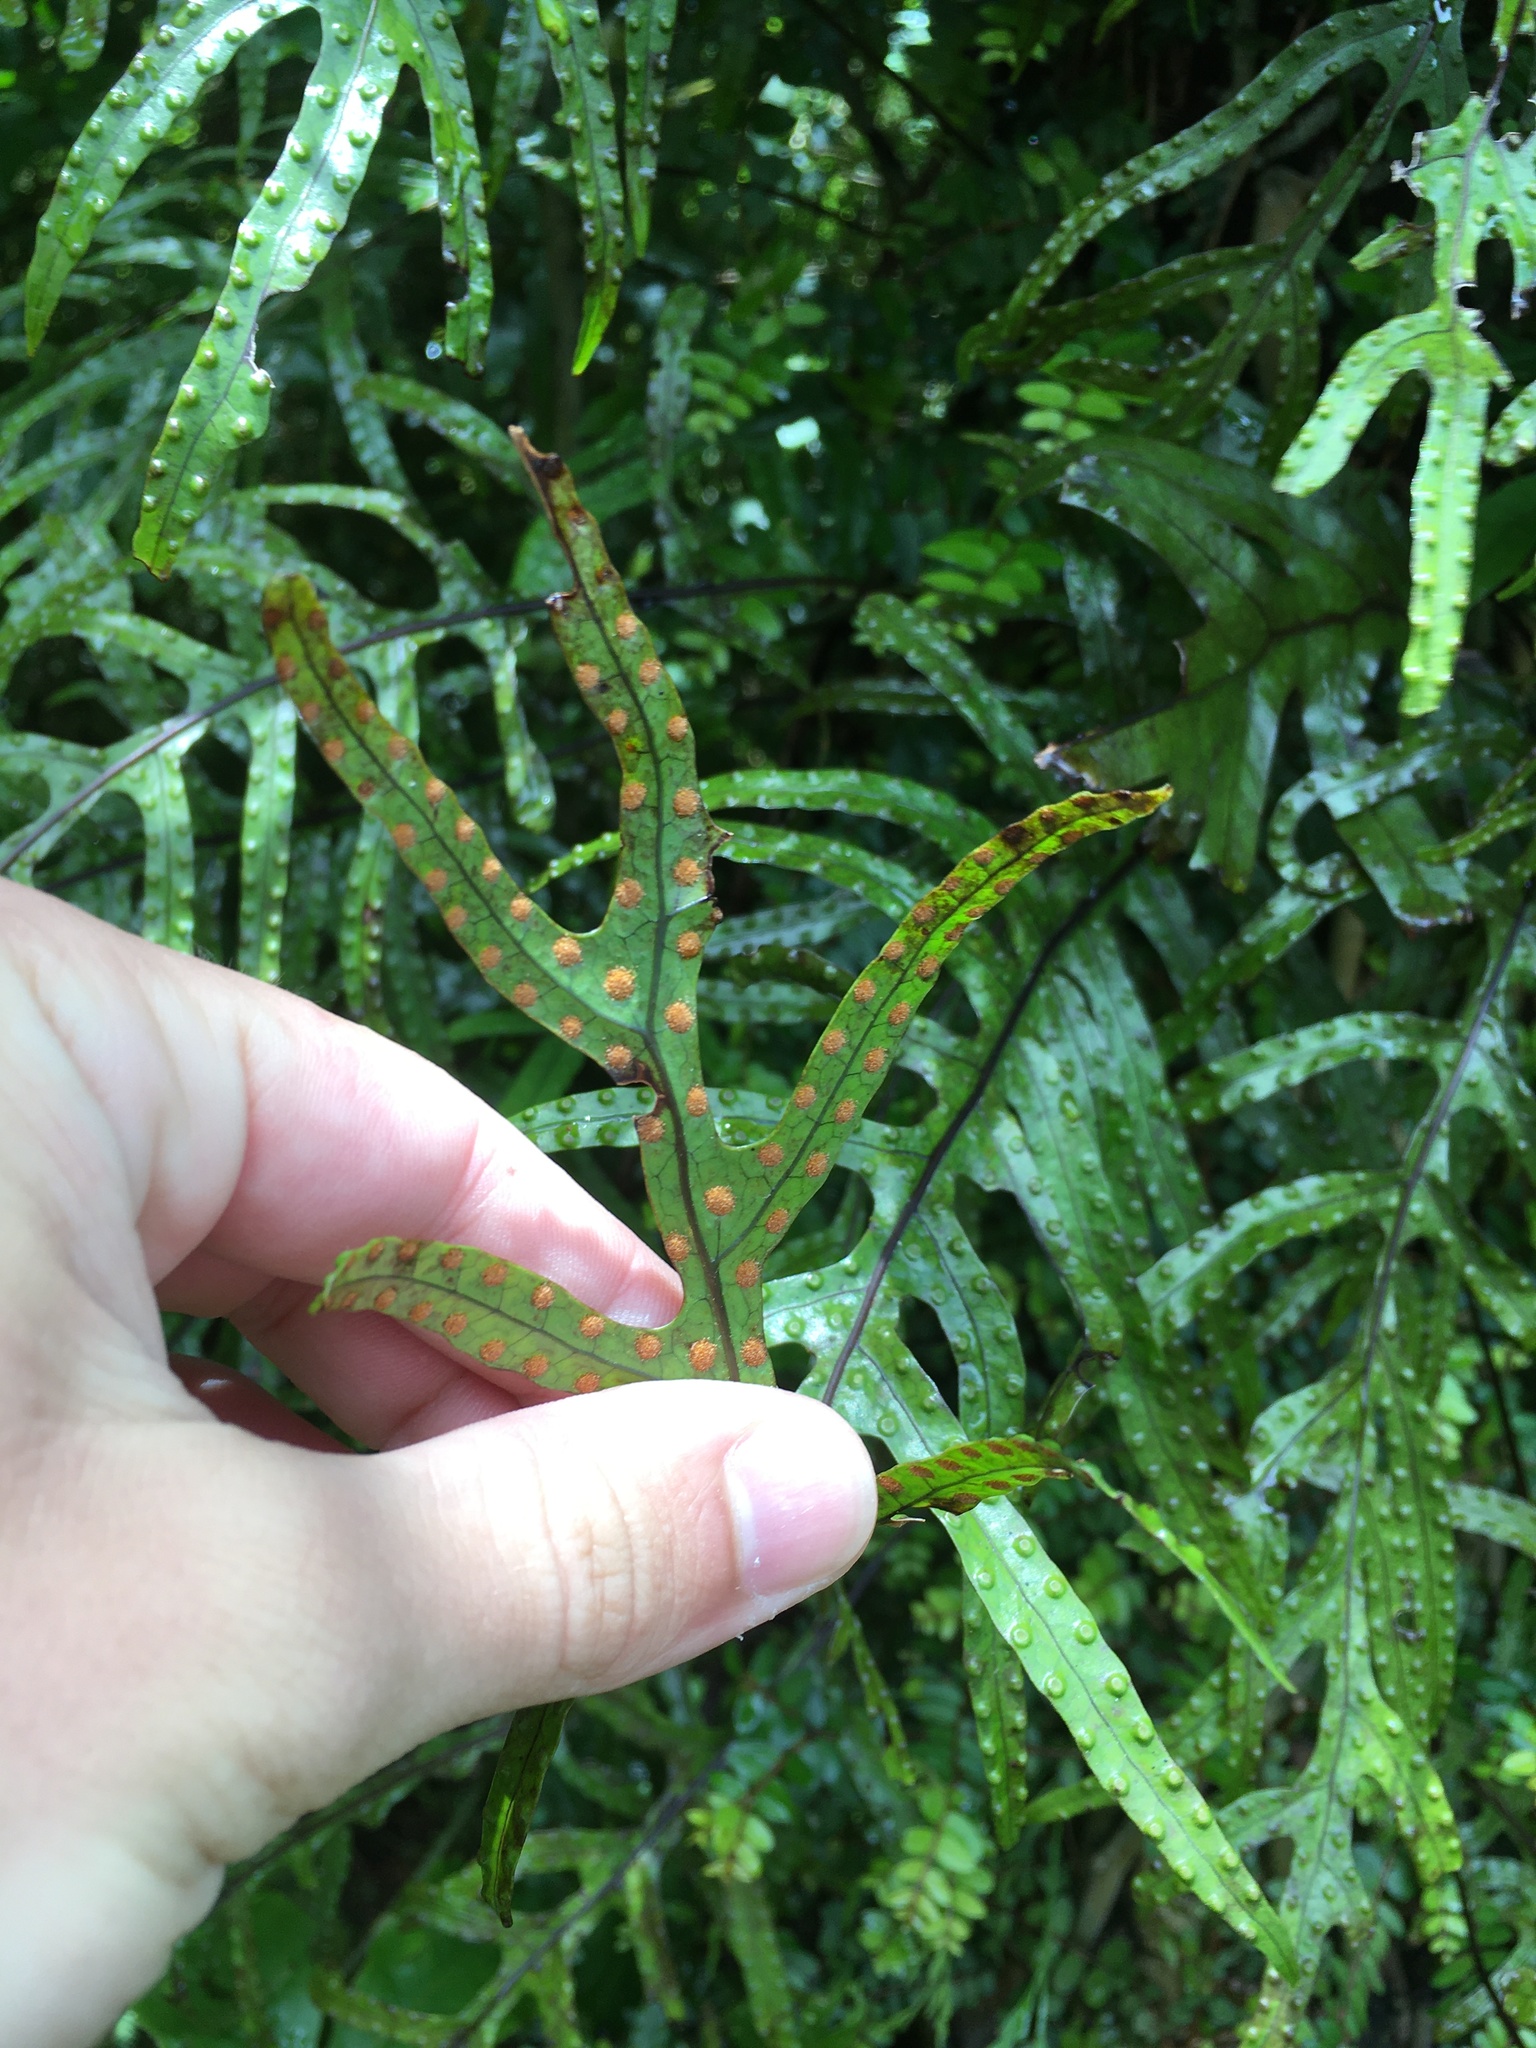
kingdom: Plantae
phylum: Tracheophyta
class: Polypodiopsida
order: Polypodiales
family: Polypodiaceae
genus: Lecanopteris
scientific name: Lecanopteris pustulata
